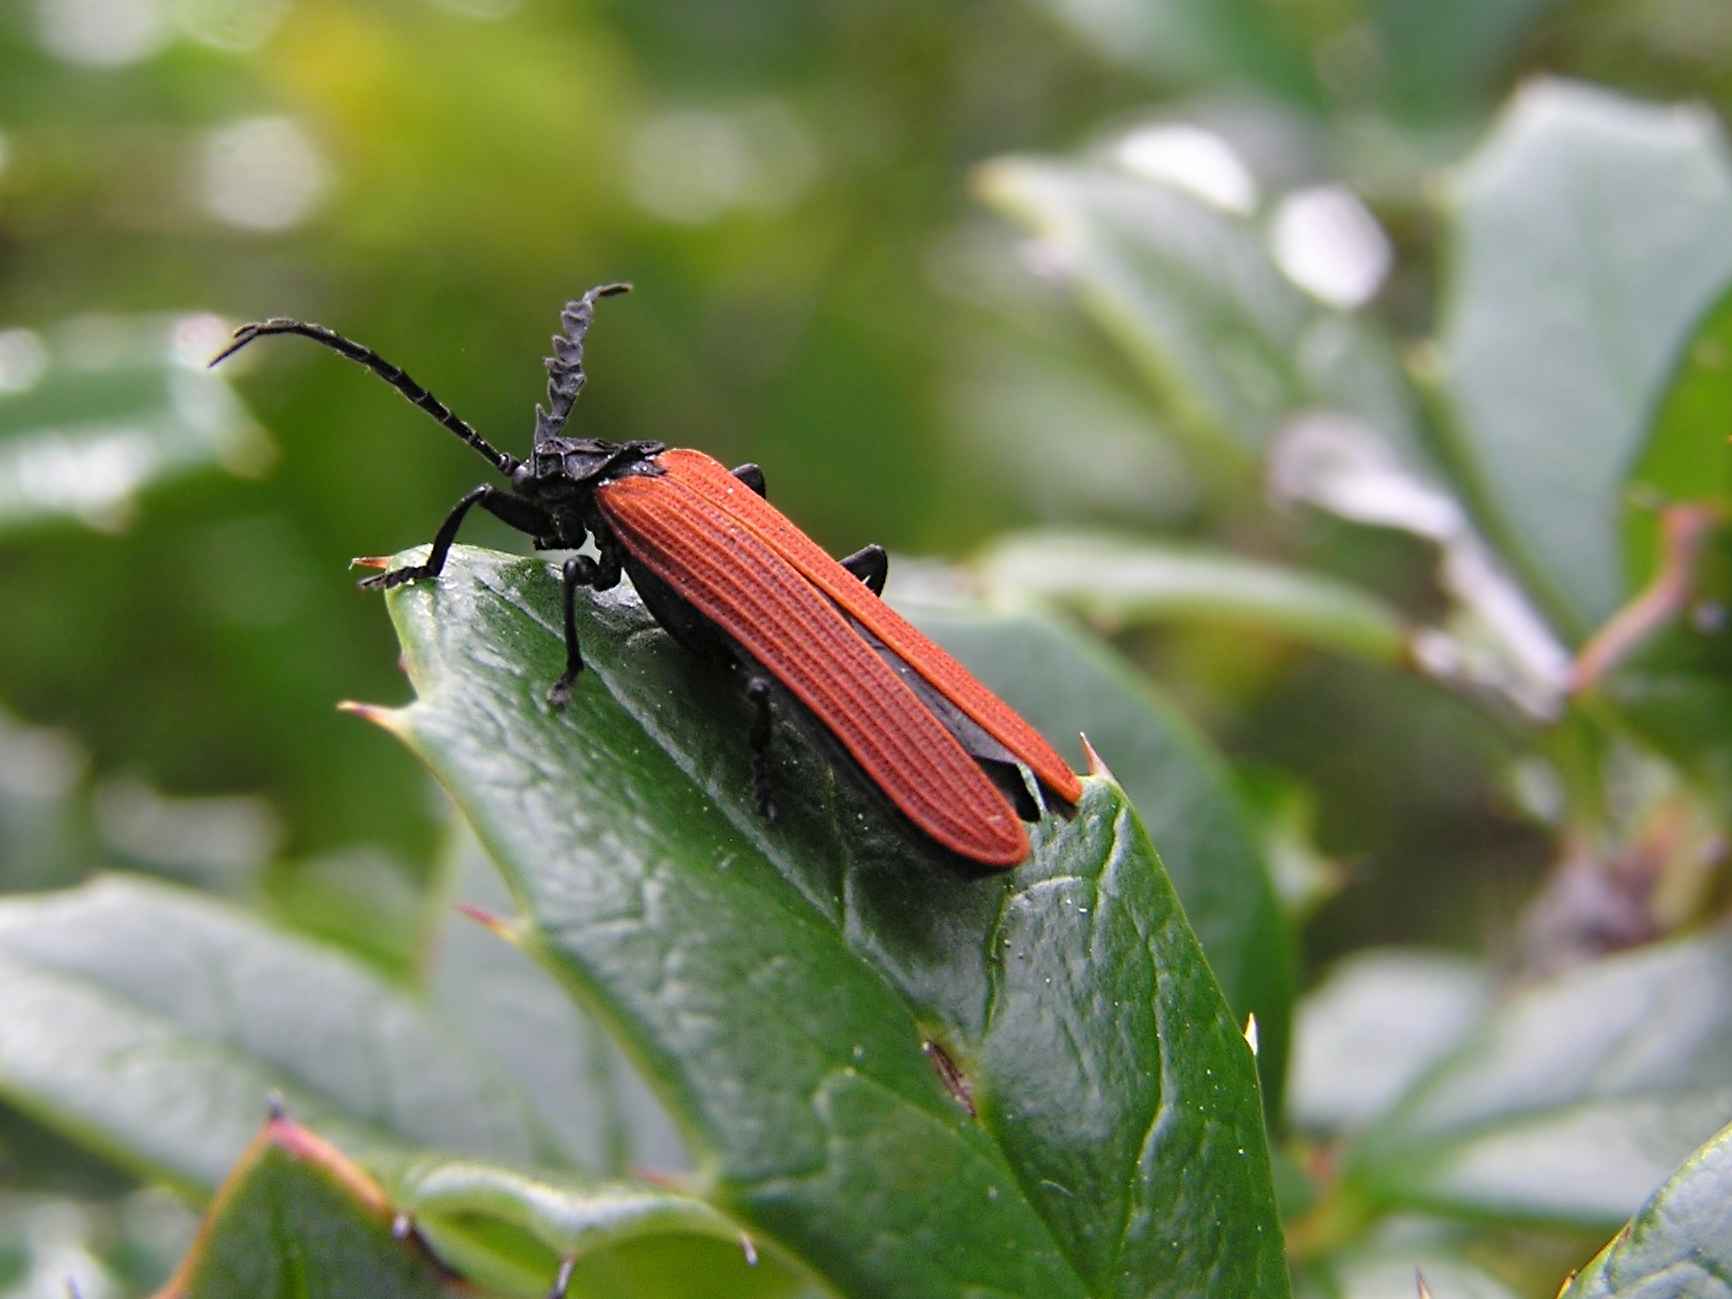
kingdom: Animalia
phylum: Arthropoda
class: Insecta
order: Coleoptera
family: Lycidae
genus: Porrostoma
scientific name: Porrostoma rufipenne
